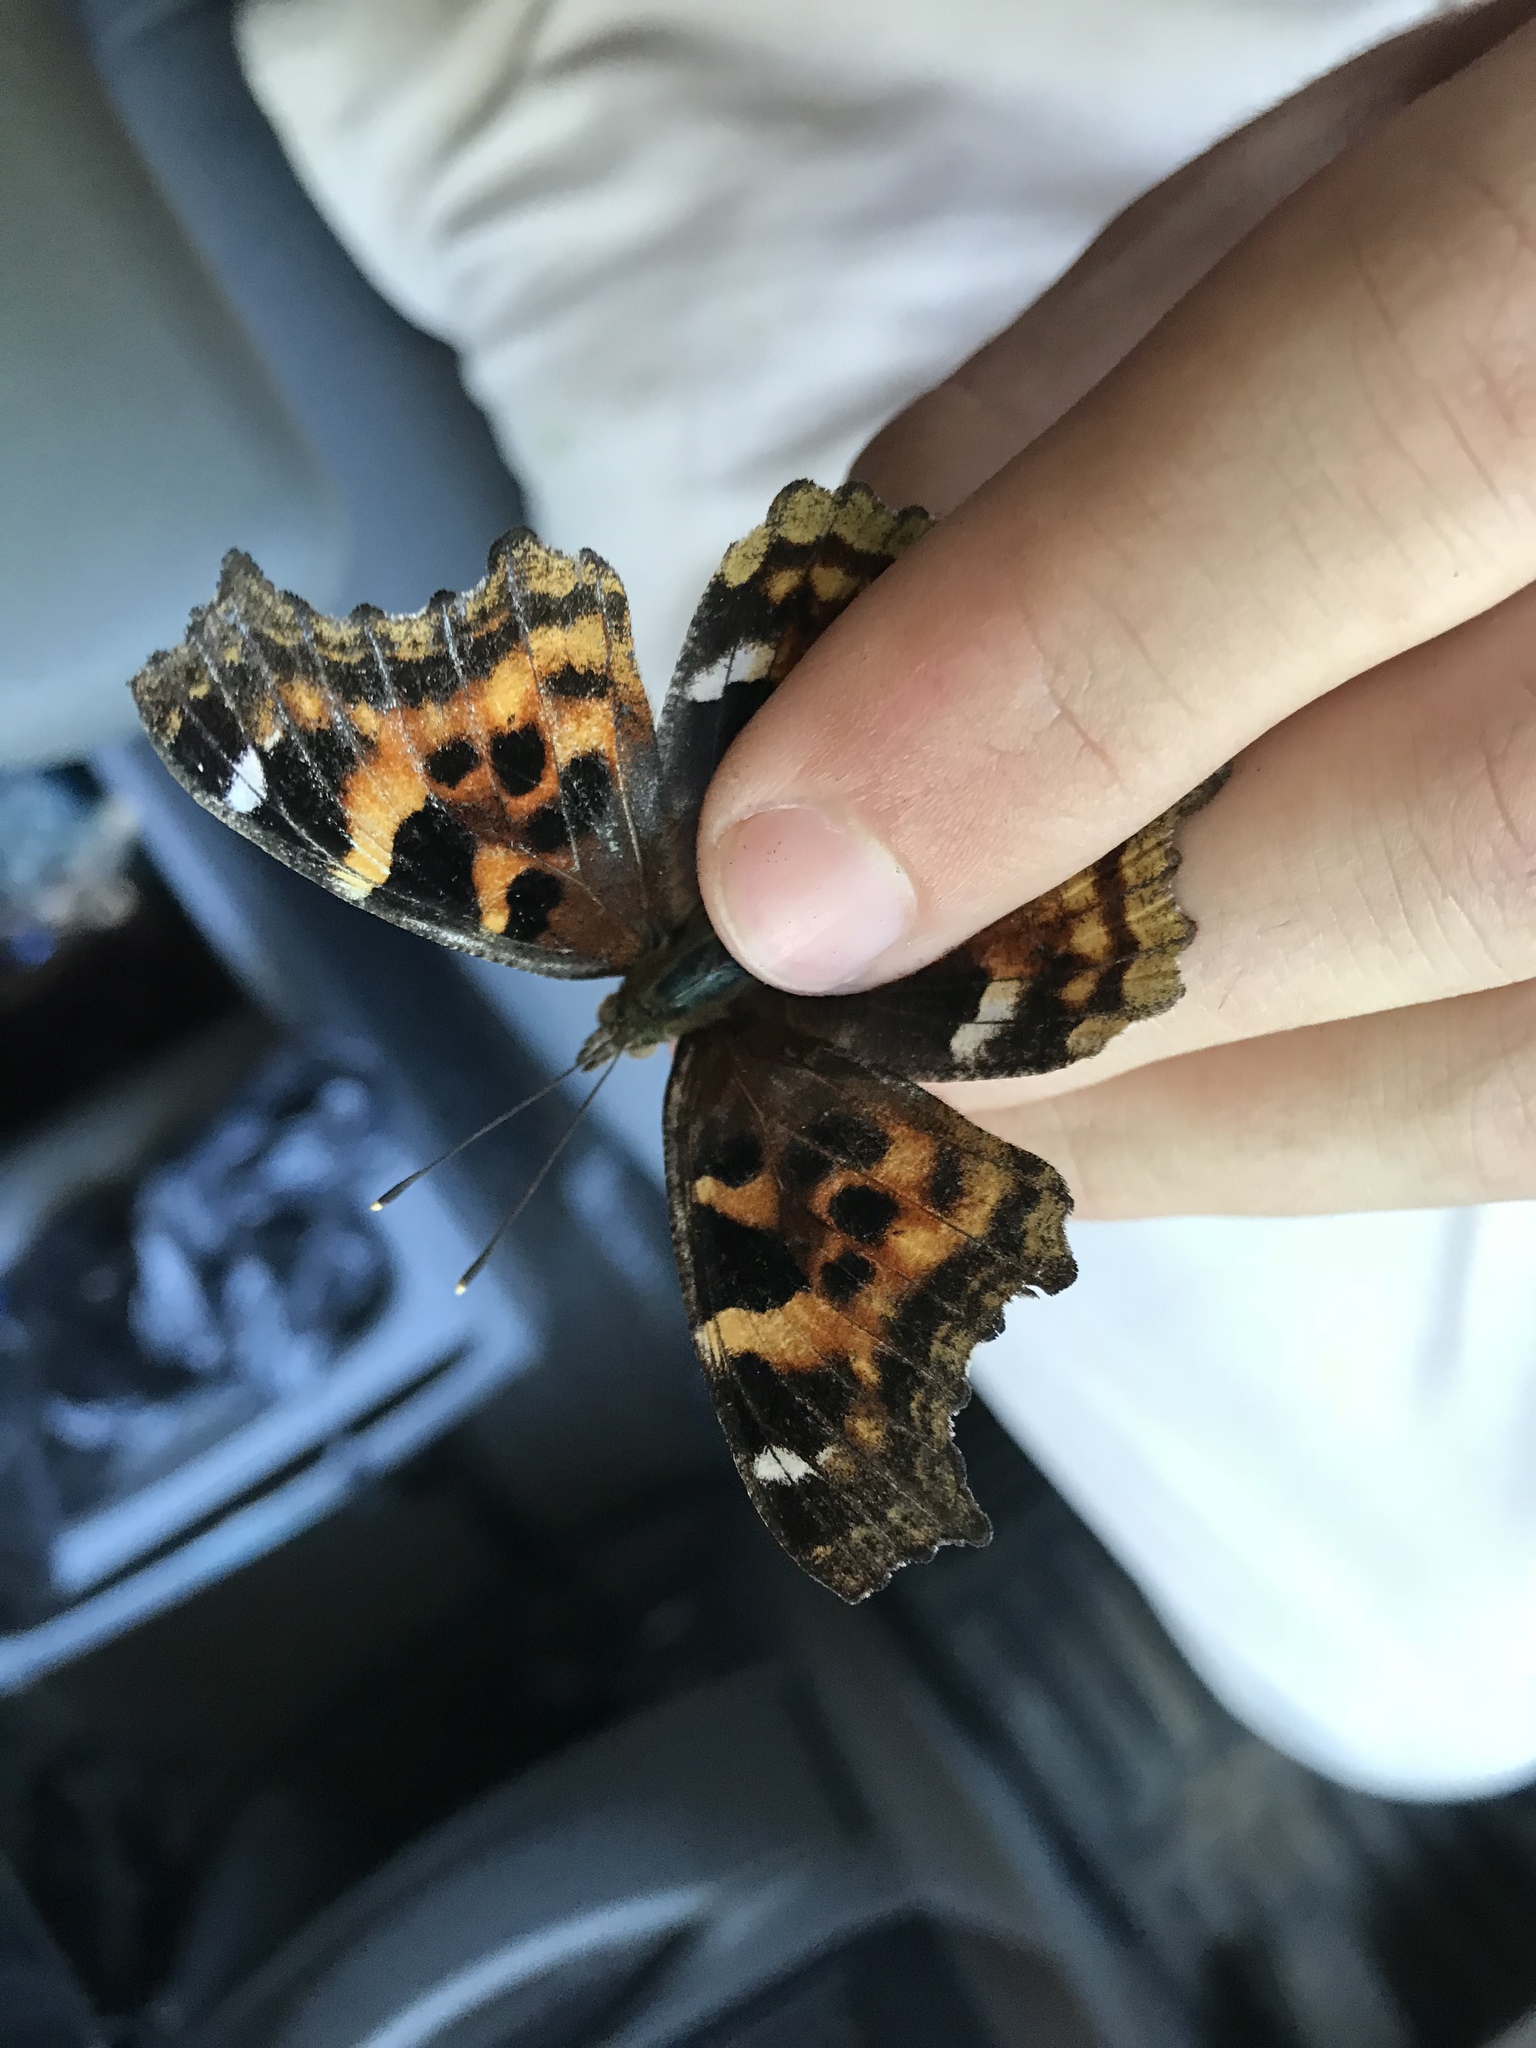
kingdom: Animalia
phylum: Arthropoda
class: Insecta
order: Lepidoptera
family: Nymphalidae
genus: Polygonia
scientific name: Polygonia vaualbum
